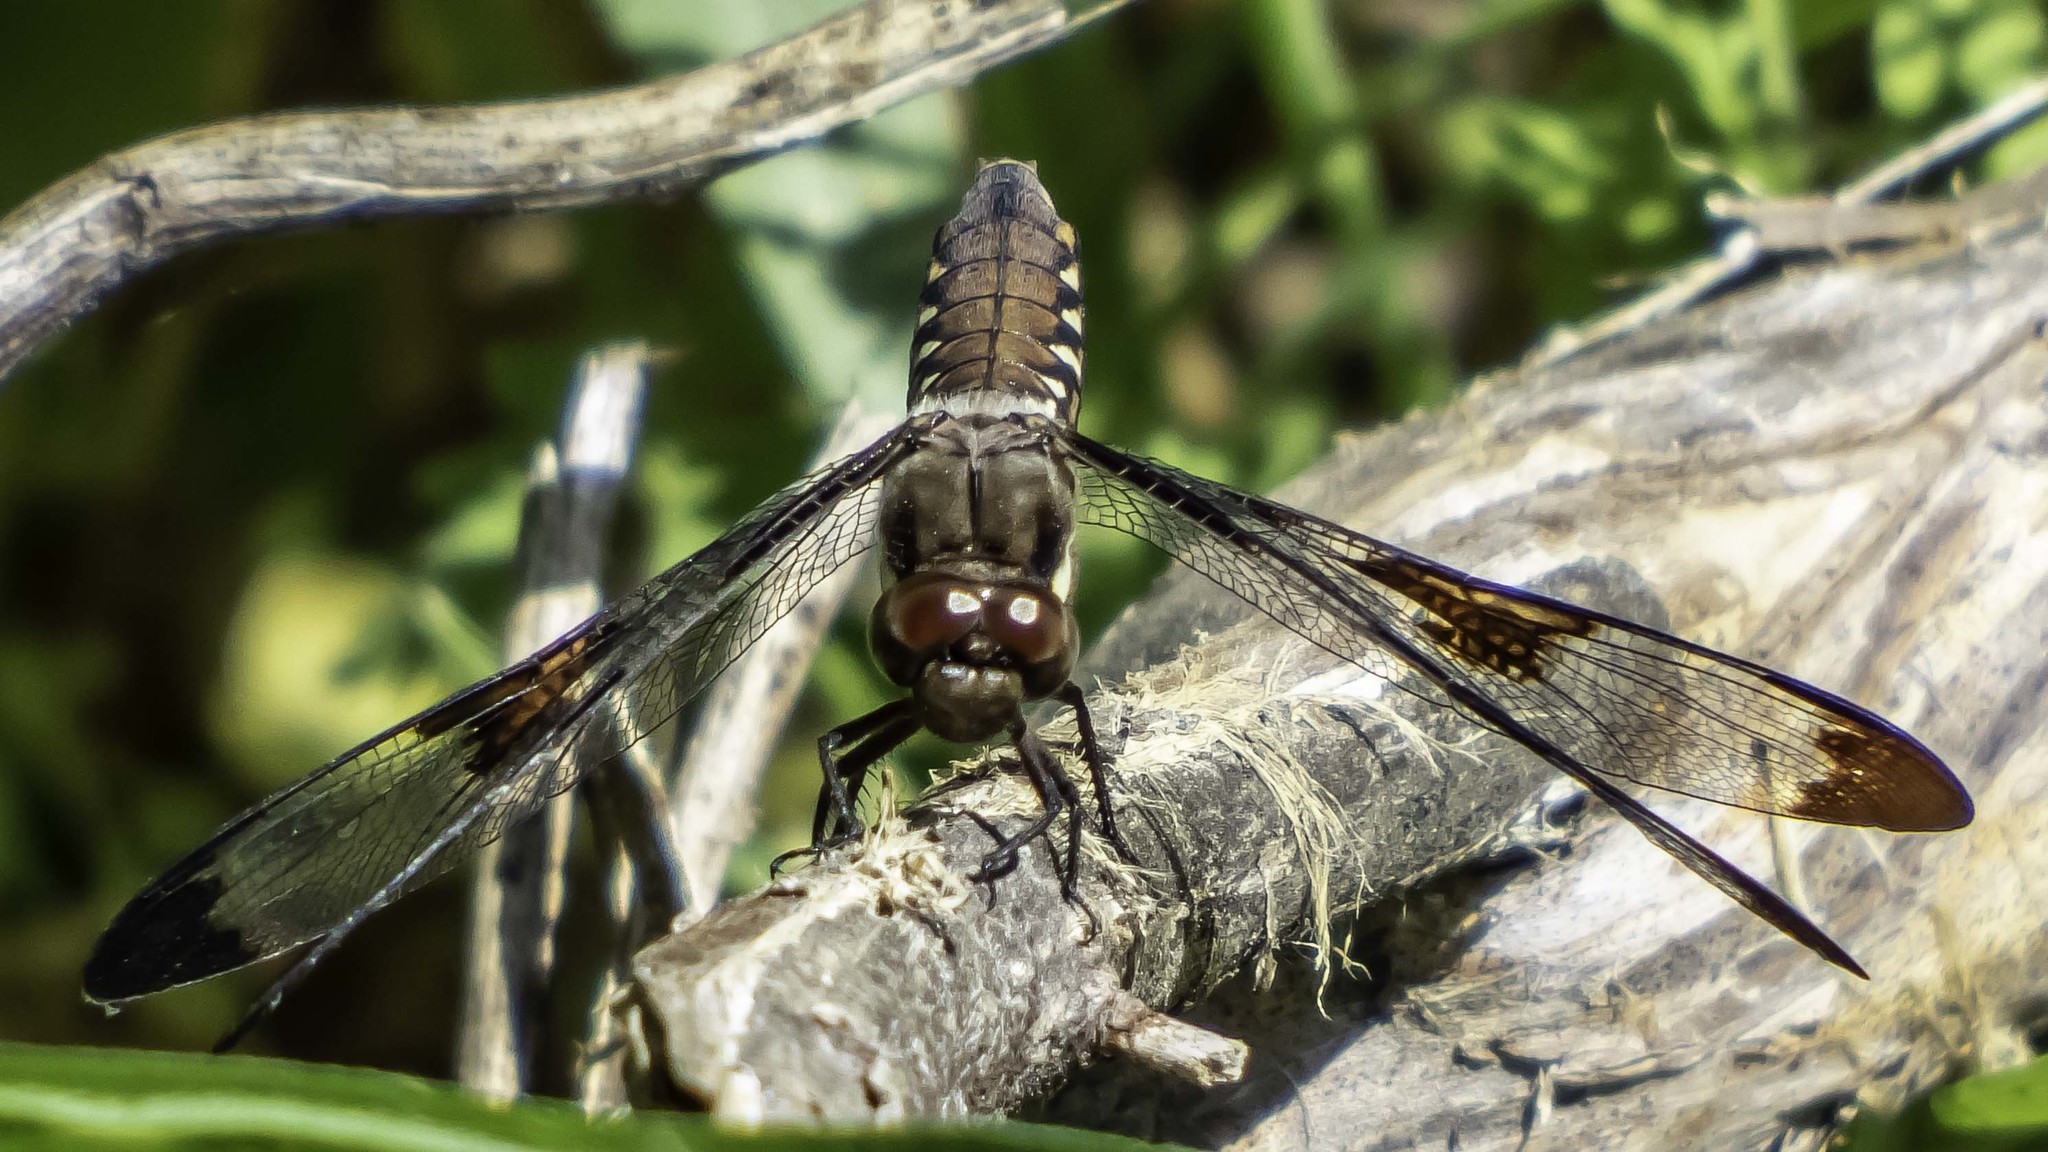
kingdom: Animalia
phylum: Arthropoda
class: Insecta
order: Odonata
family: Libellulidae
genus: Plathemis
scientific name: Plathemis lydia
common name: Common whitetail
